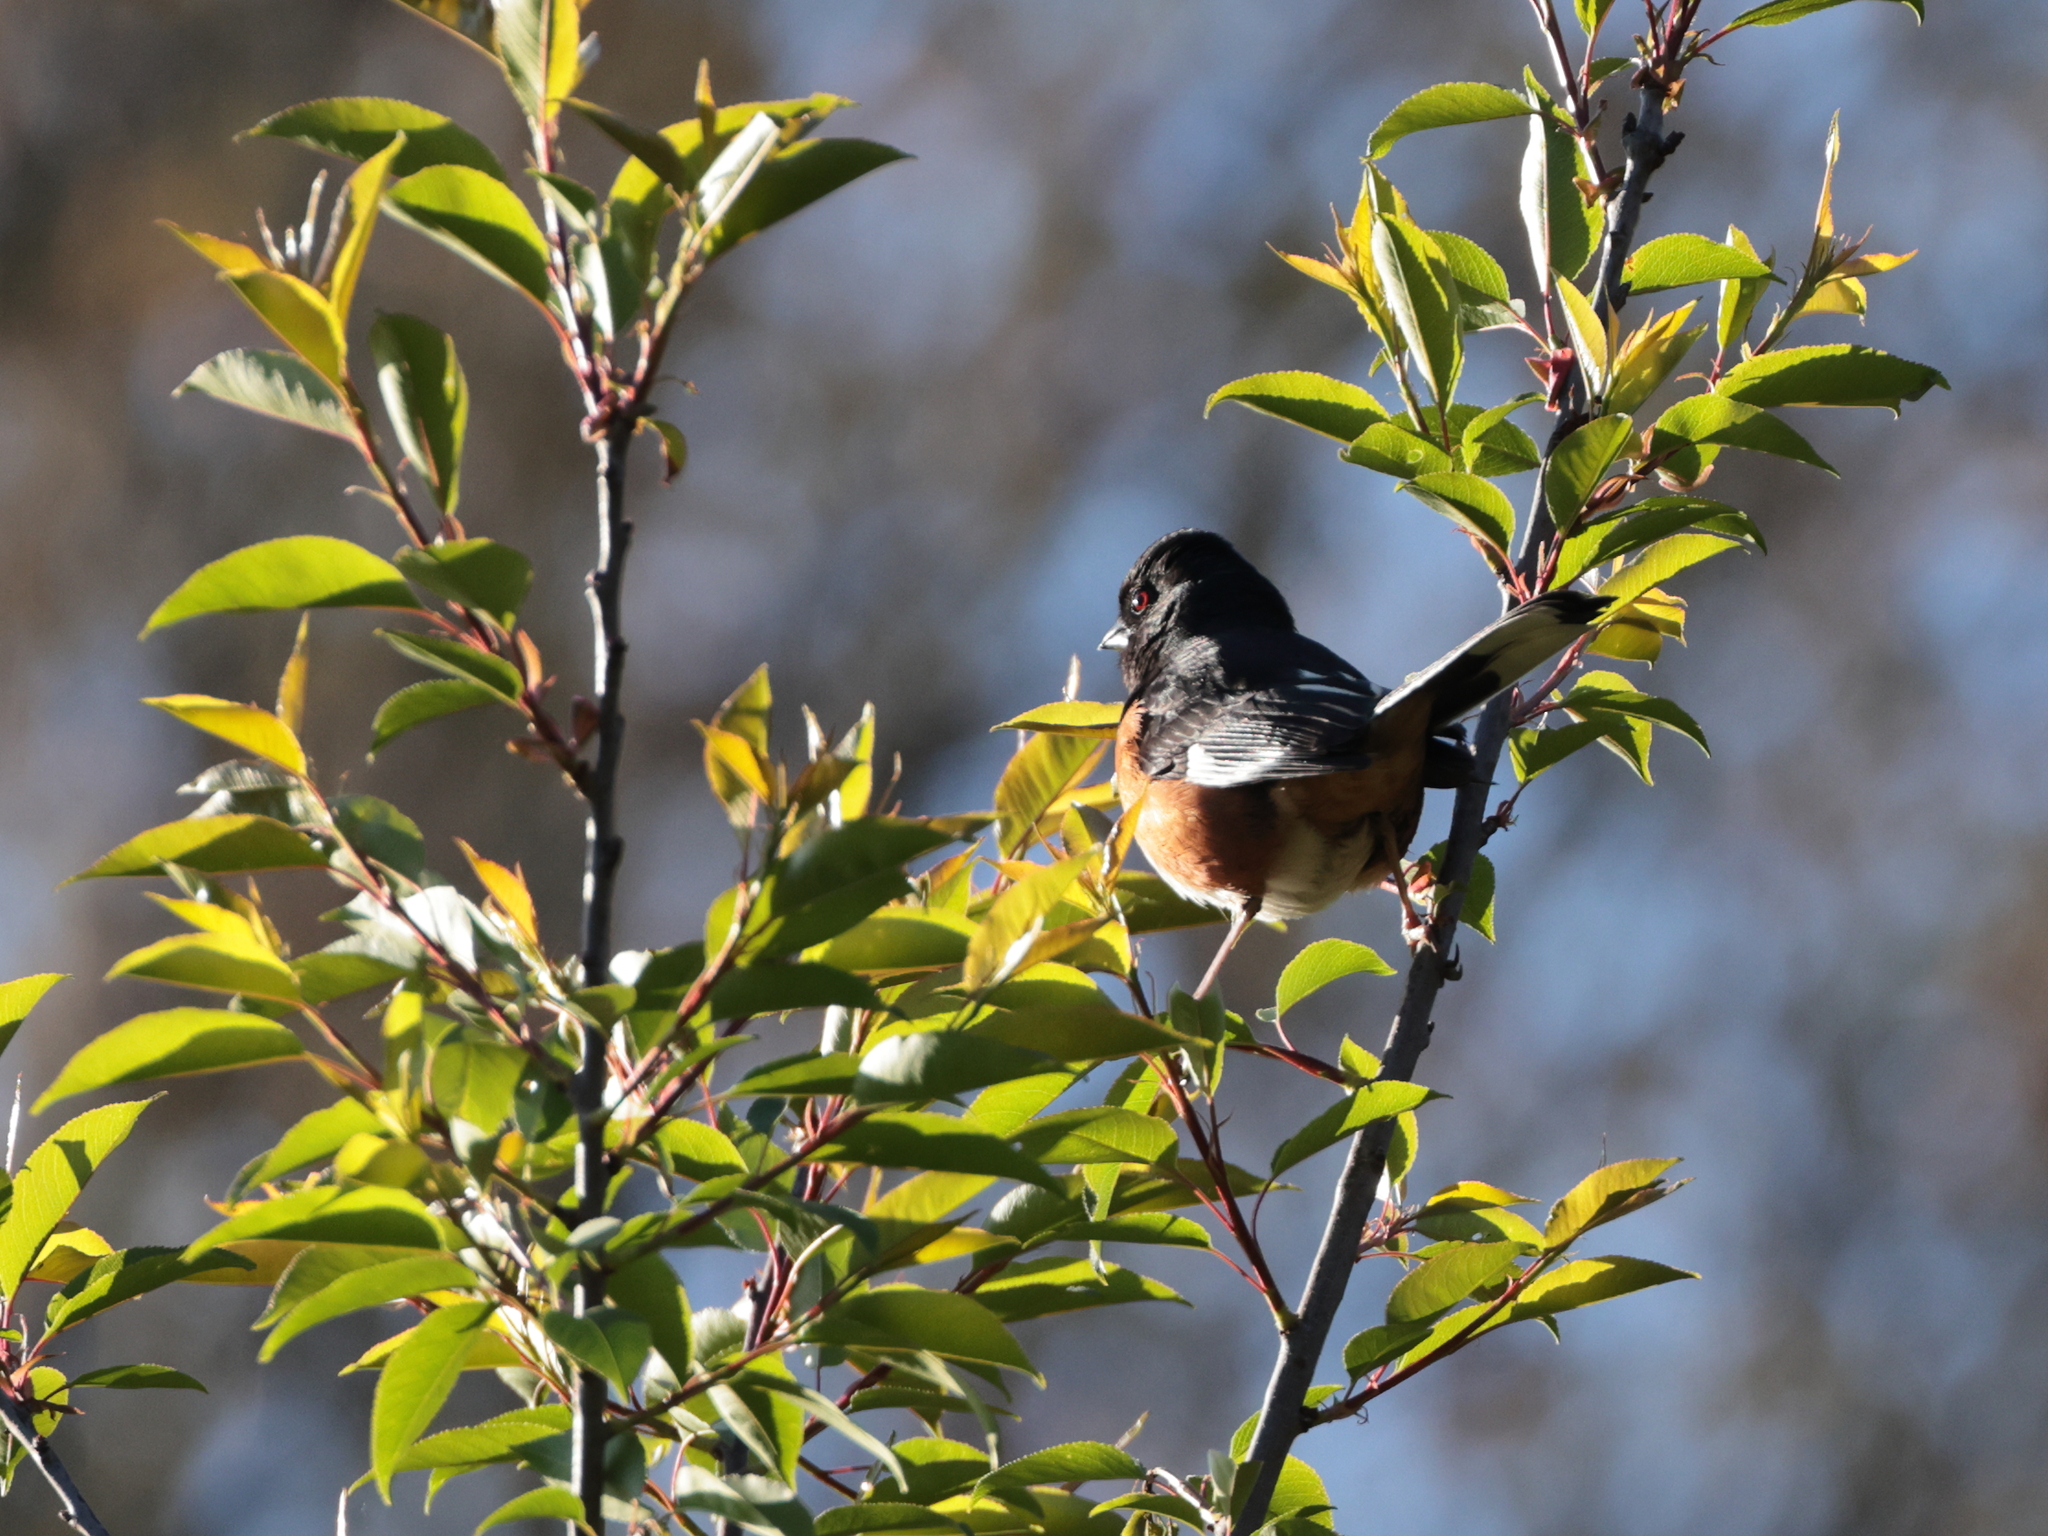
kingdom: Animalia
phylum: Chordata
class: Aves
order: Passeriformes
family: Passerellidae
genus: Pipilo
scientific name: Pipilo erythrophthalmus
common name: Eastern towhee
